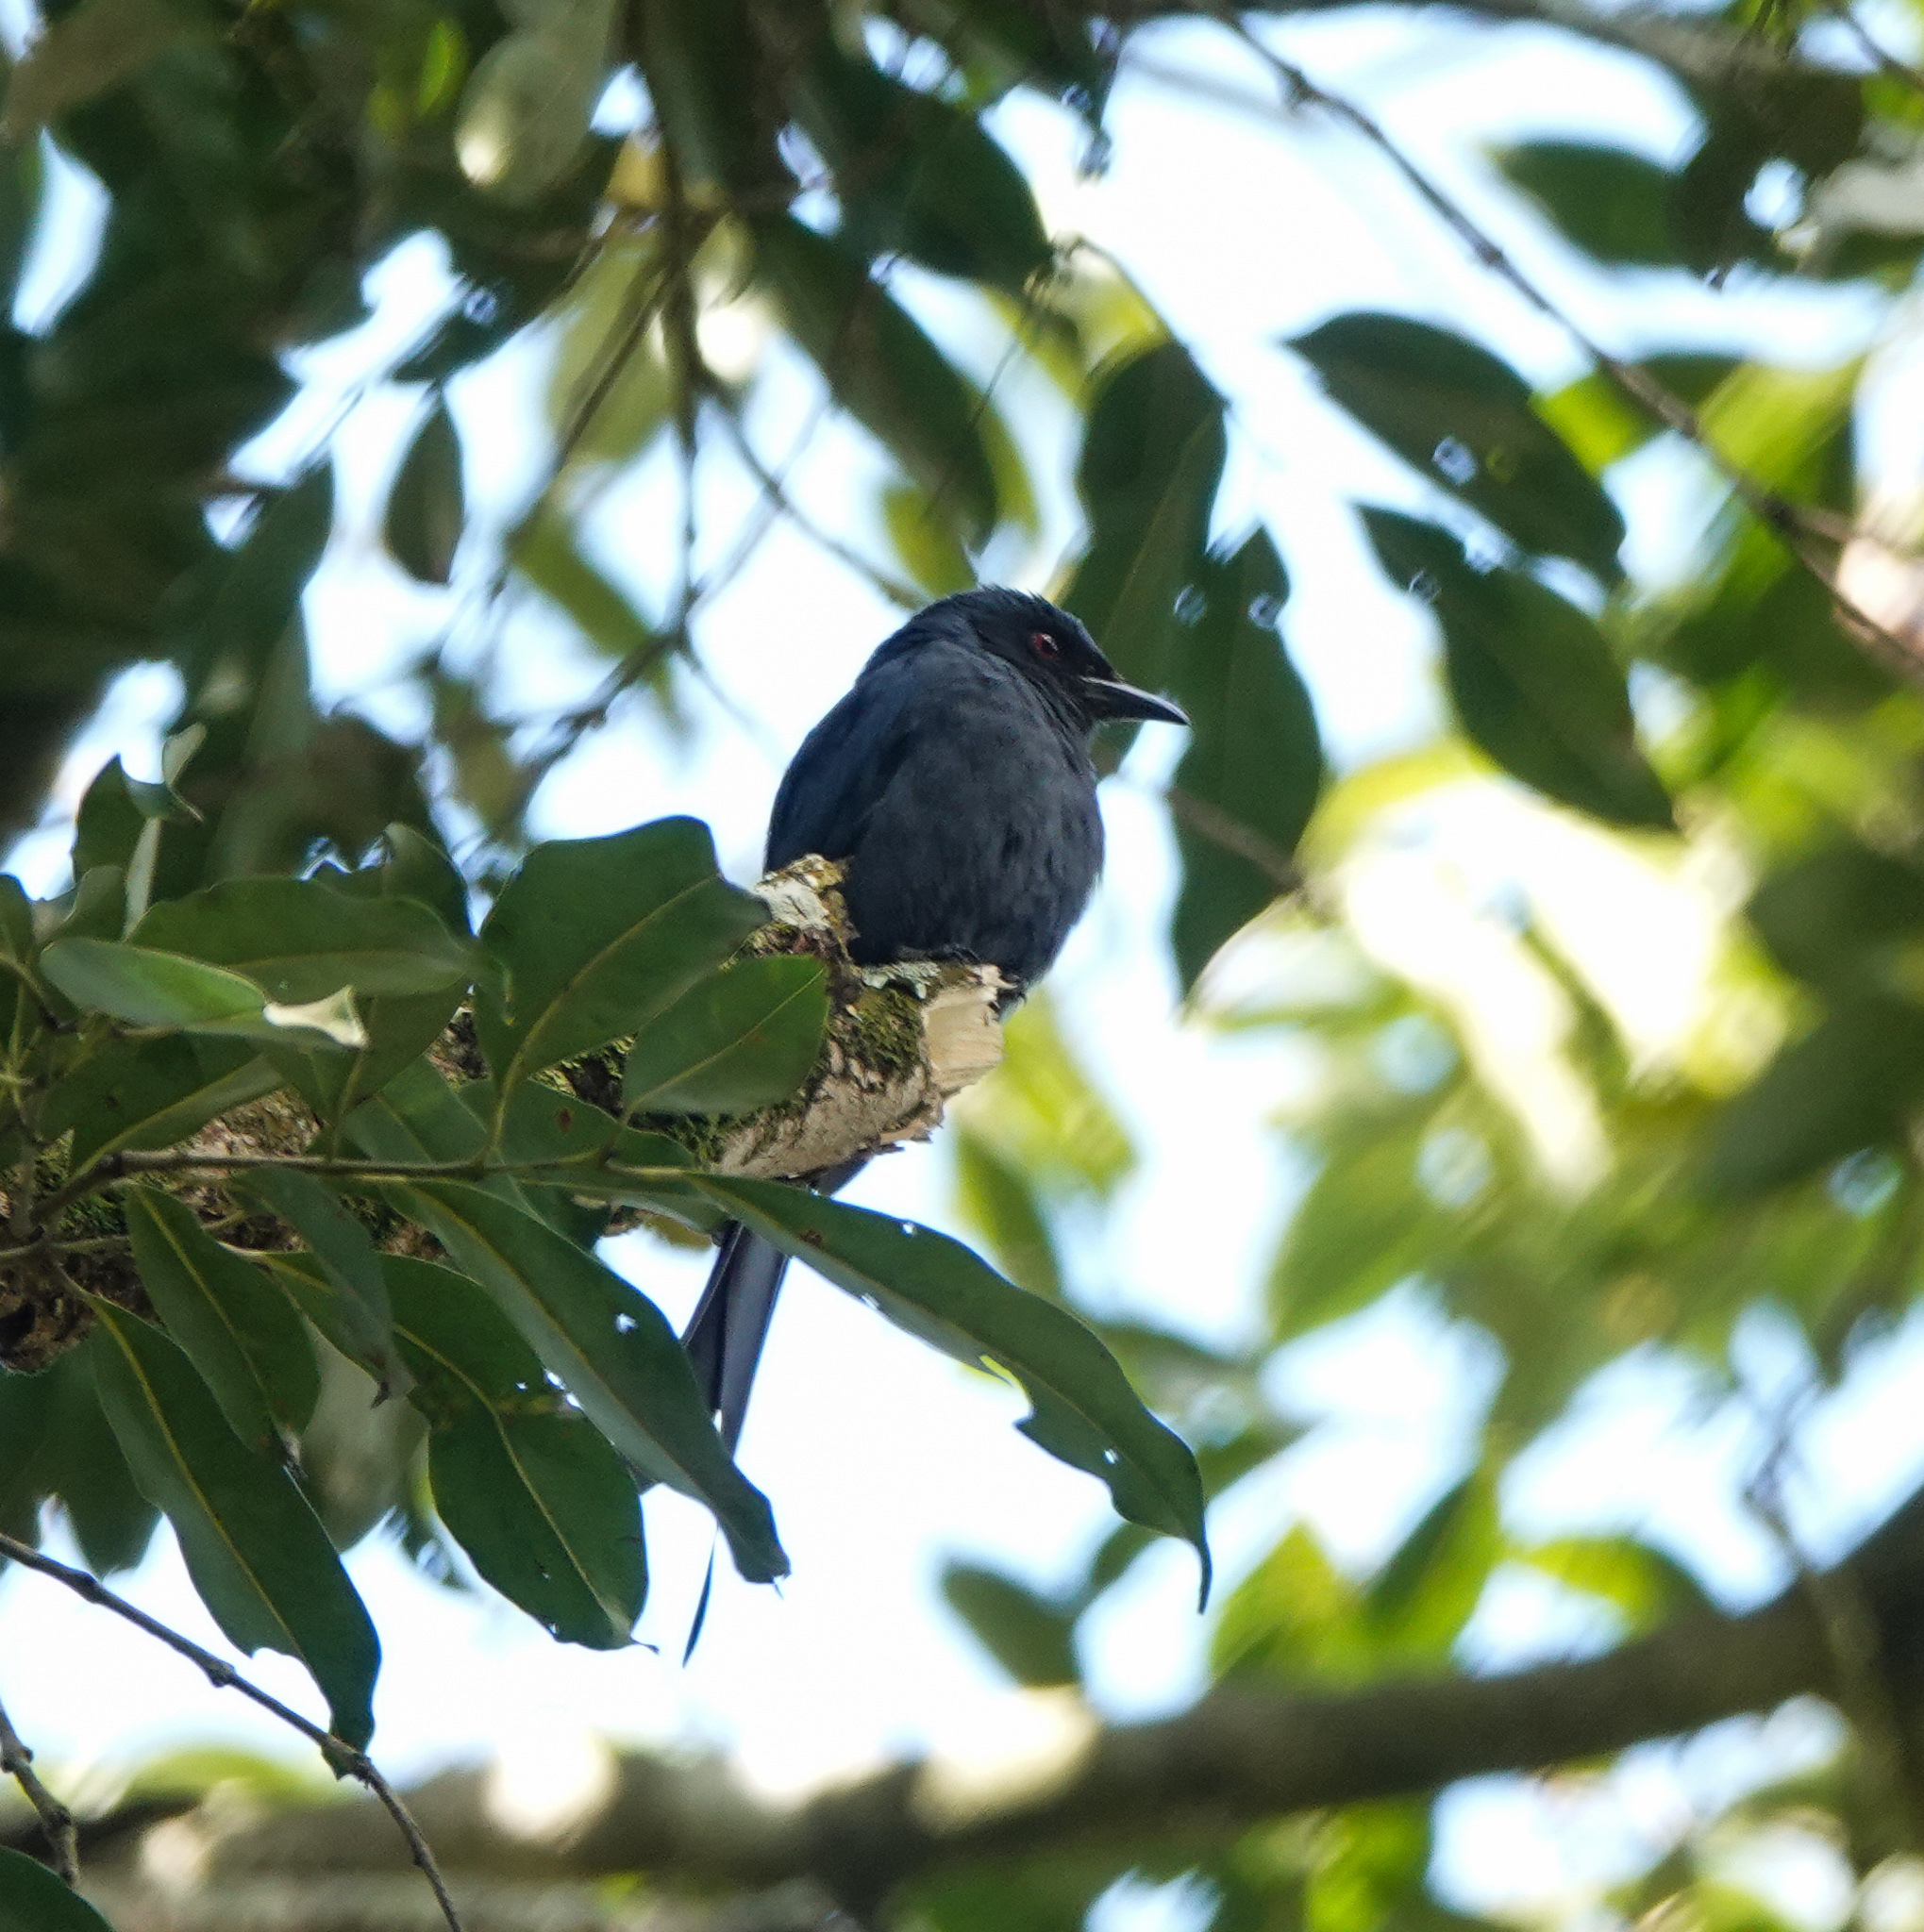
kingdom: Animalia
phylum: Chordata
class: Aves
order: Passeriformes
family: Dicruridae
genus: Dicrurus
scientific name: Dicrurus leucophaeus
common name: Ashy drongo
